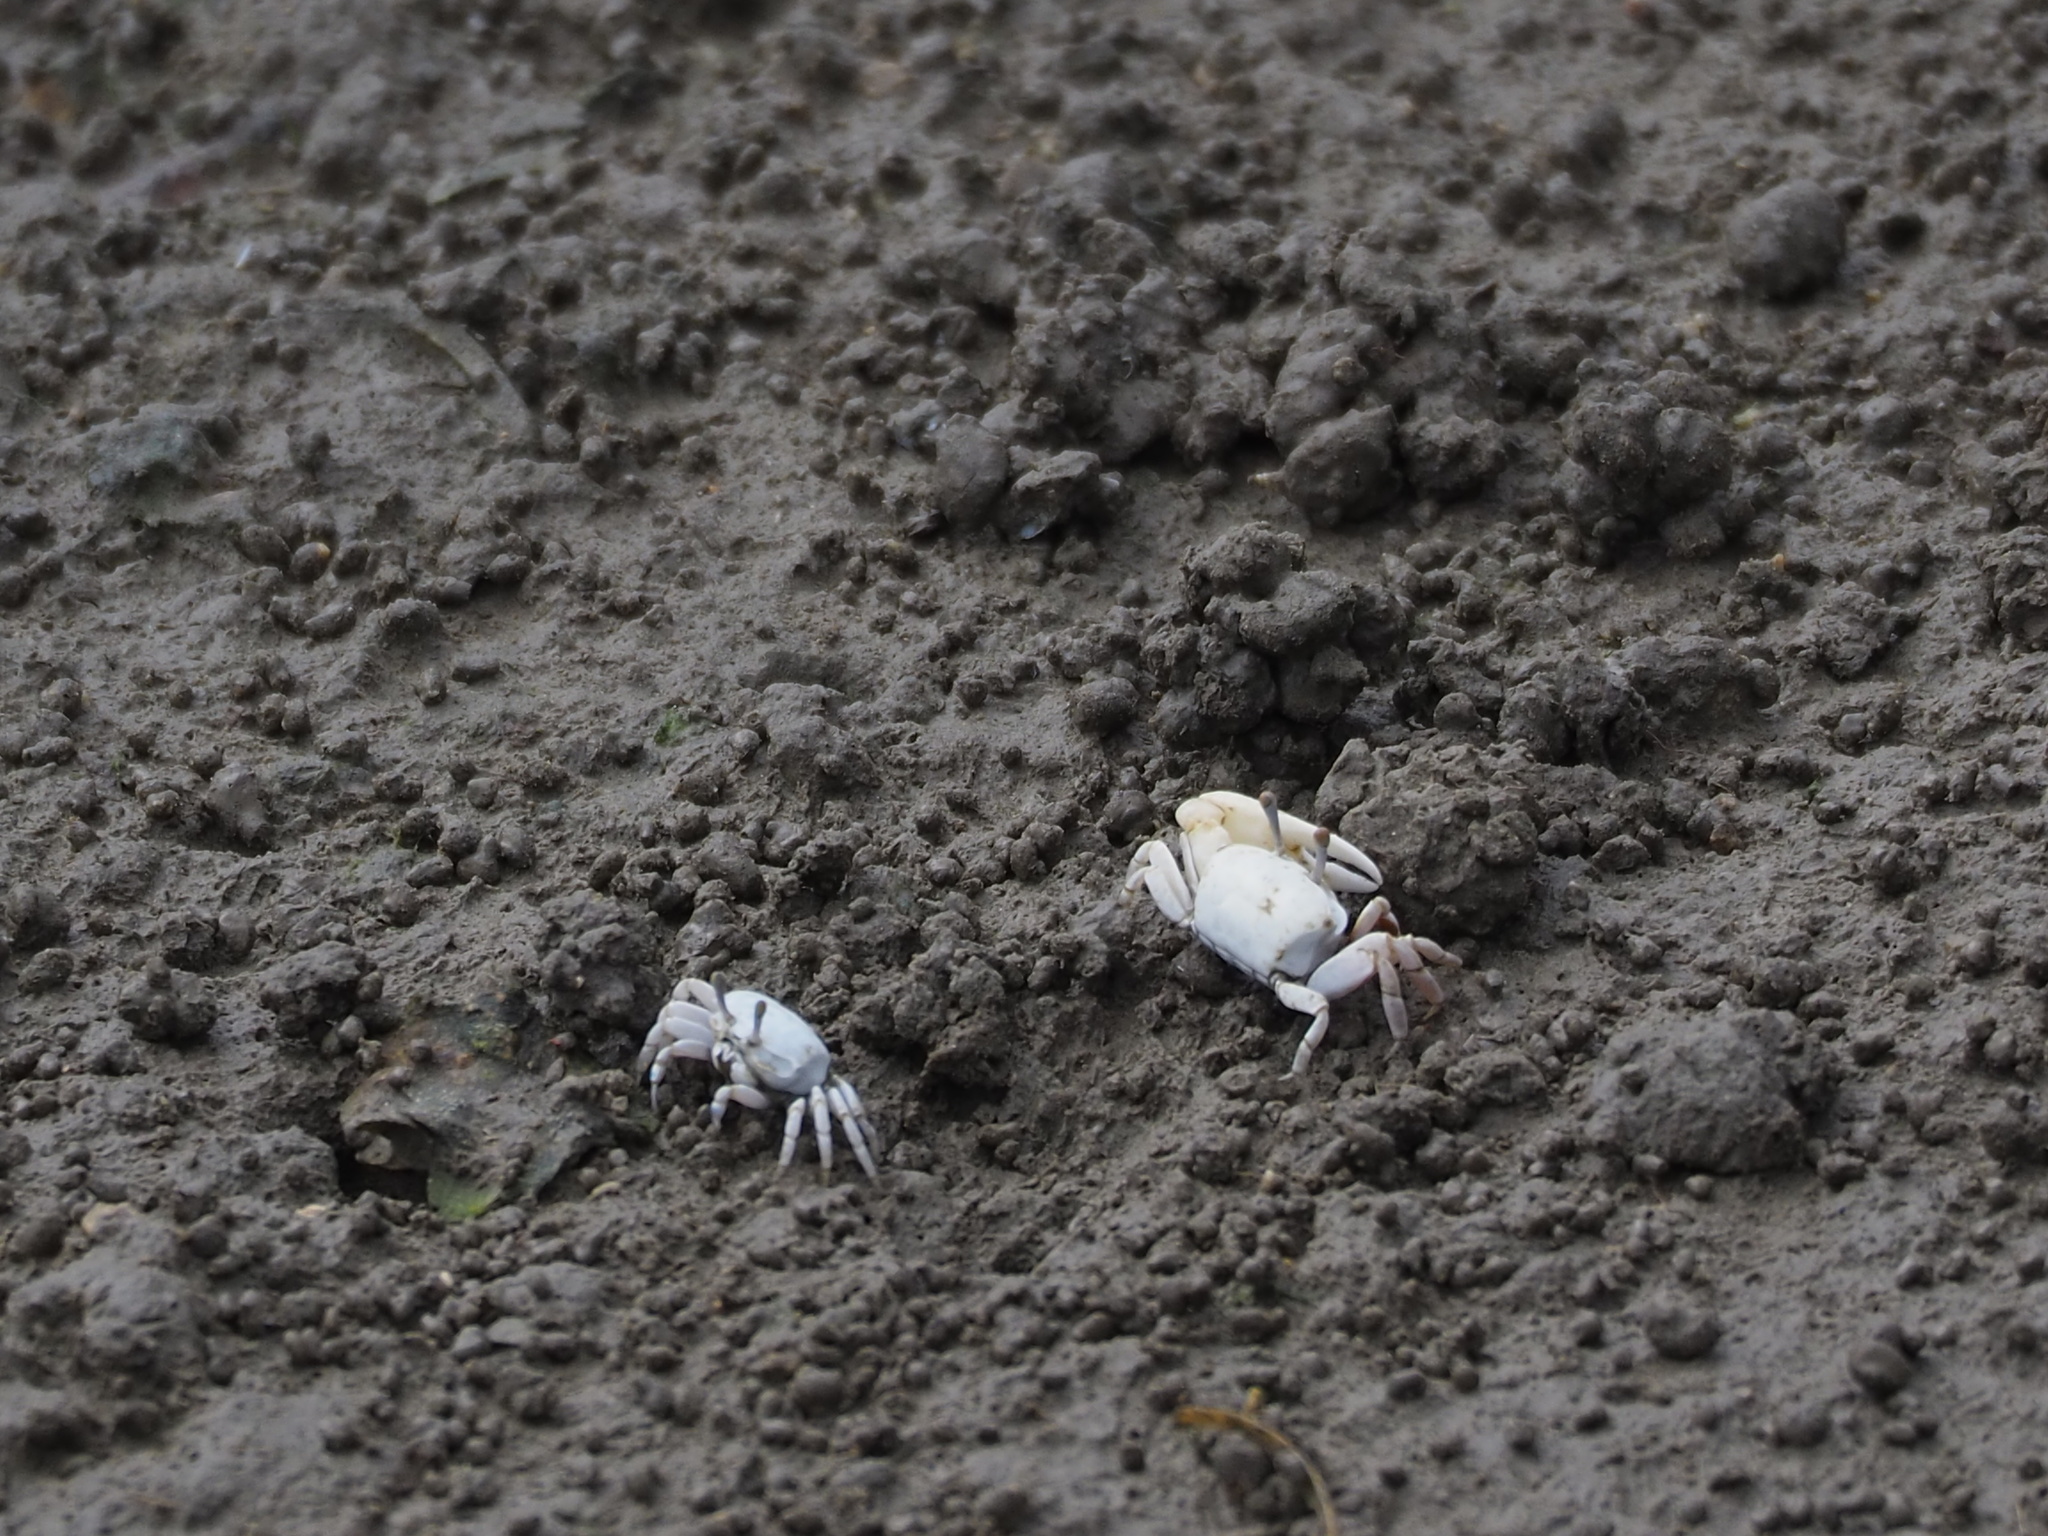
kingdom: Animalia
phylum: Arthropoda
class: Malacostraca
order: Decapoda
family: Ocypodidae
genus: Austruca
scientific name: Austruca lactea
